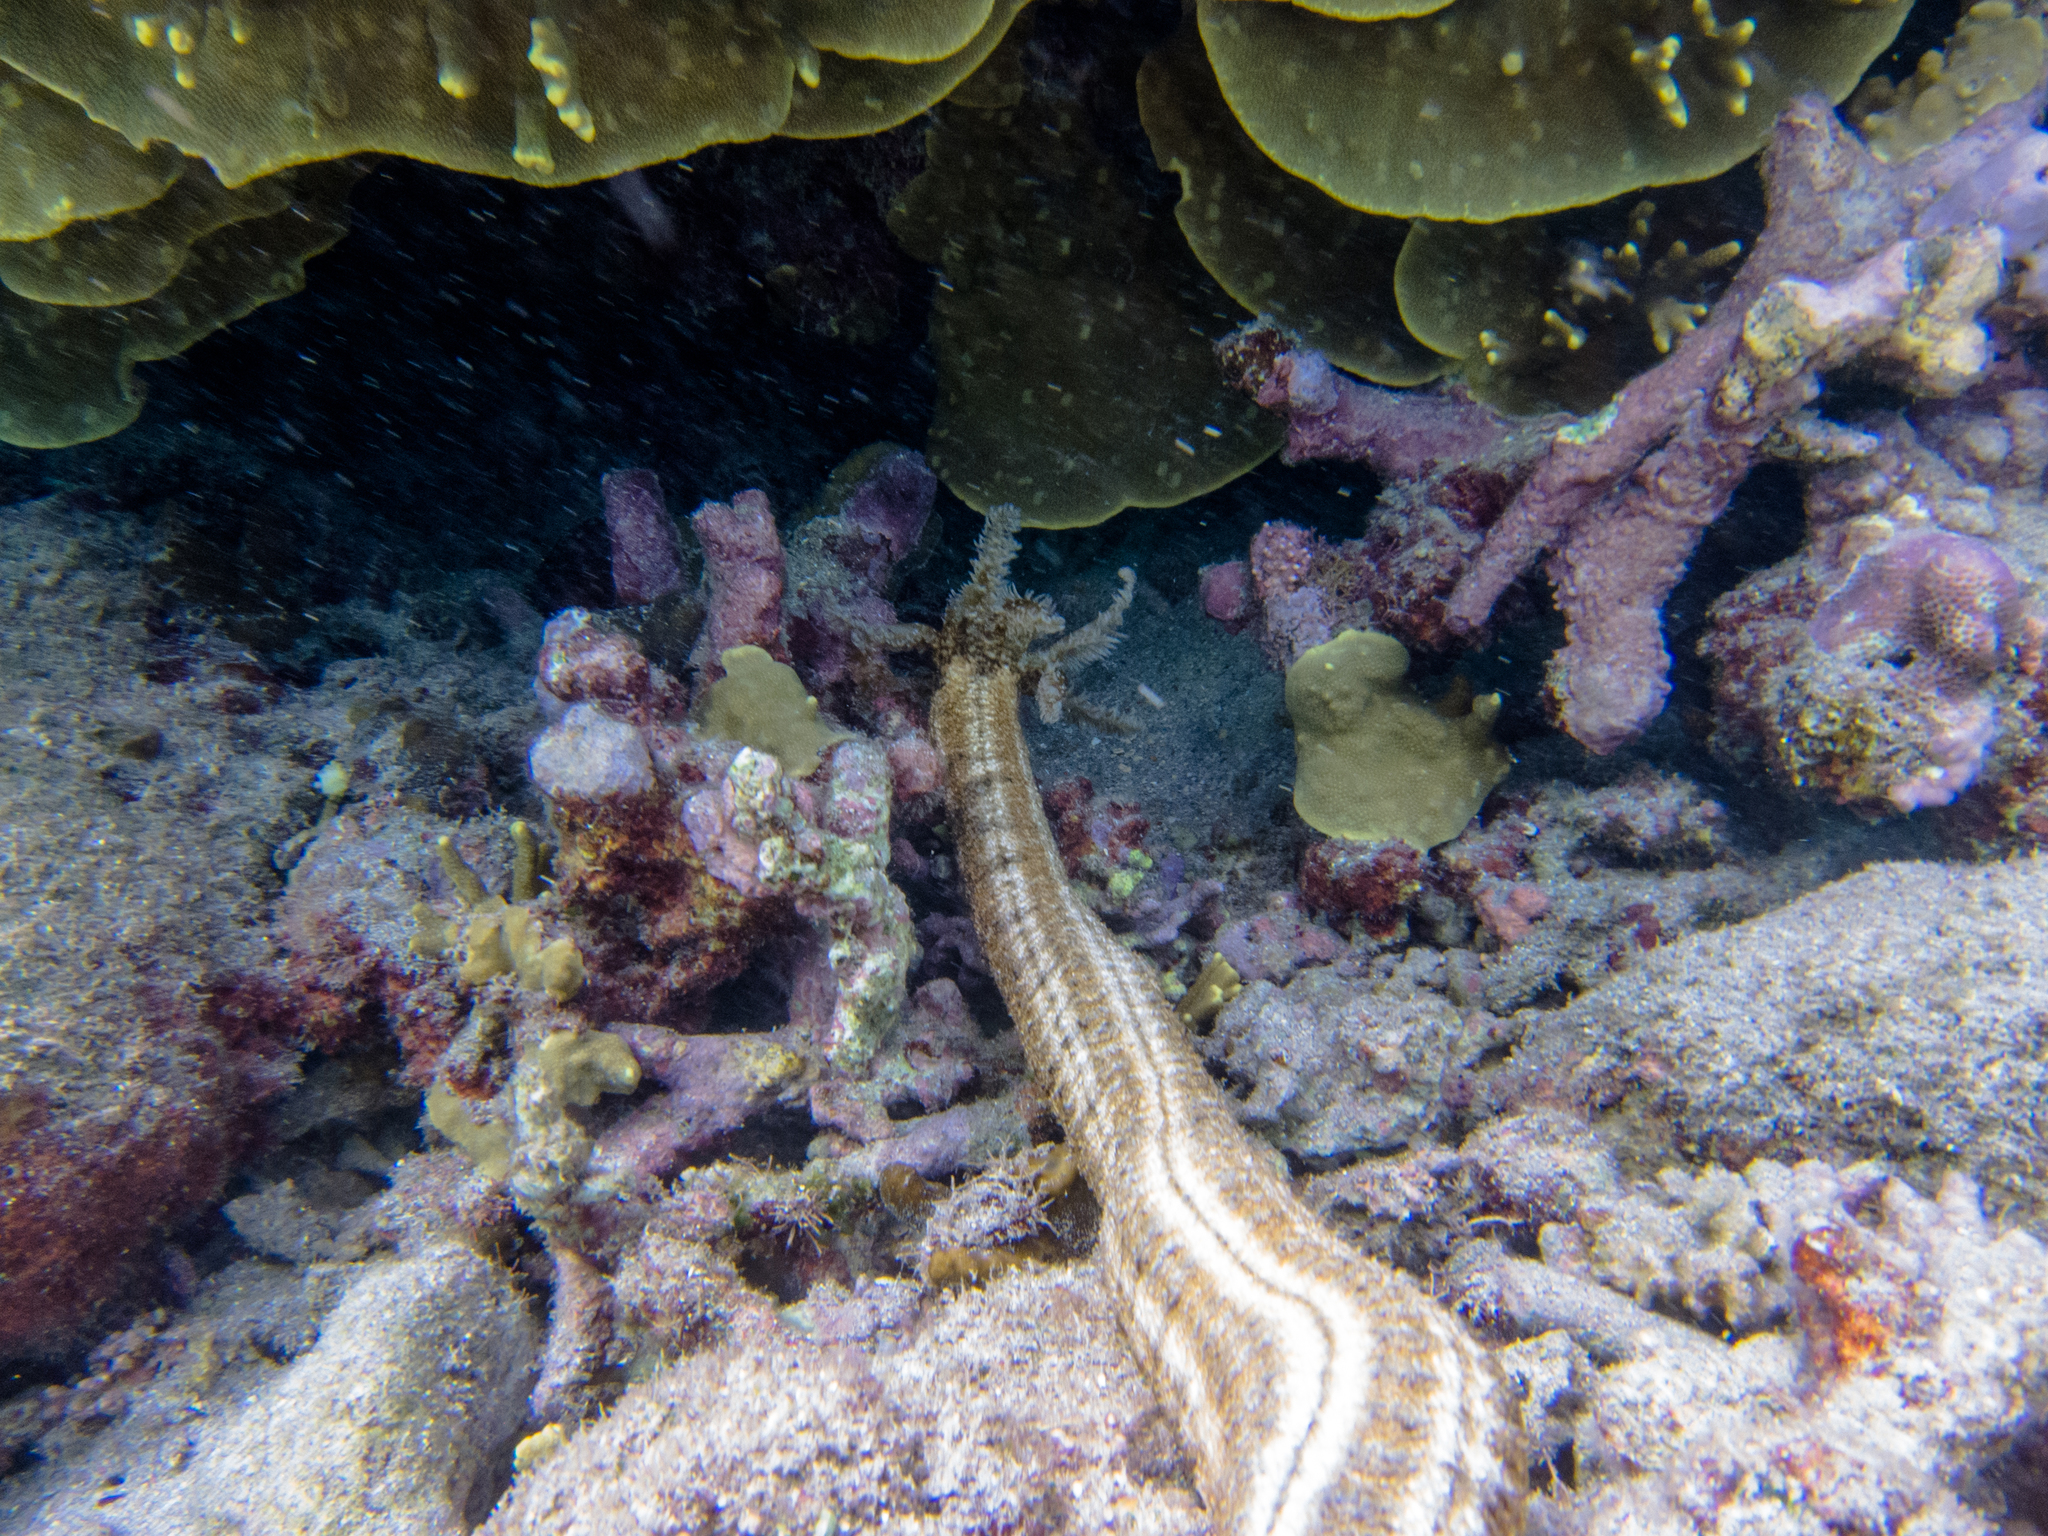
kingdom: Animalia
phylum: Echinodermata
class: Holothuroidea
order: Apodida
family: Synaptidae
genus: Synapta
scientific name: Synapta maculata
